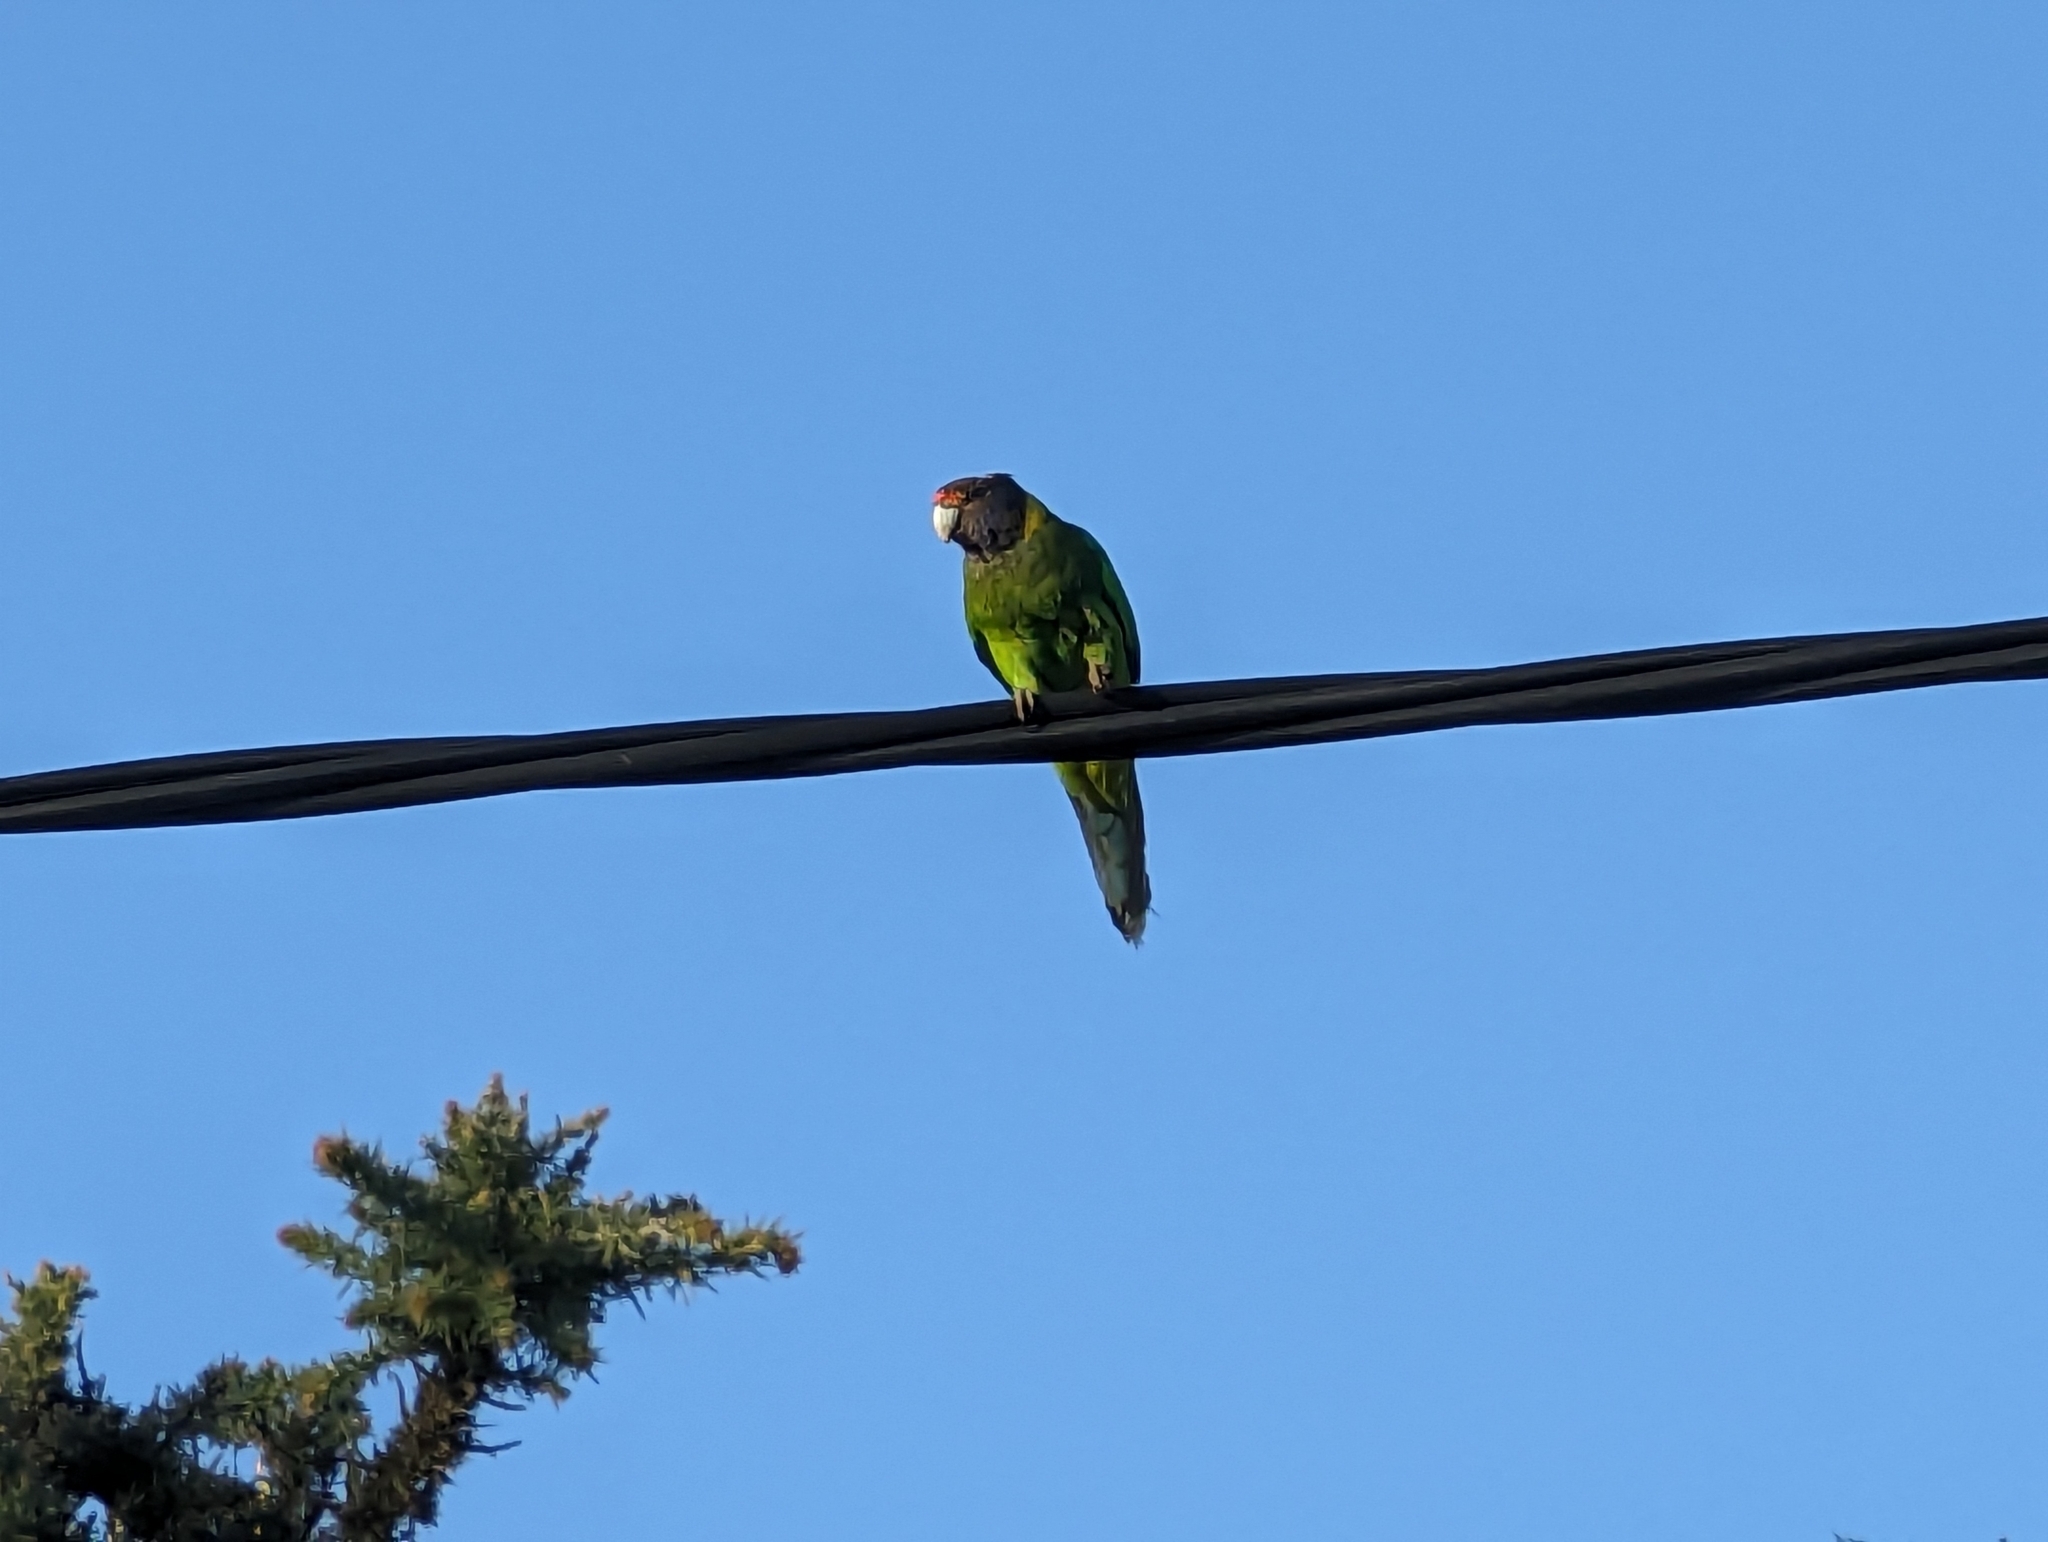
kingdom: Animalia
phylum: Chordata
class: Aves
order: Psittaciformes
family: Psittacidae
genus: Barnardius
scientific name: Barnardius zonarius
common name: Australian ringneck
